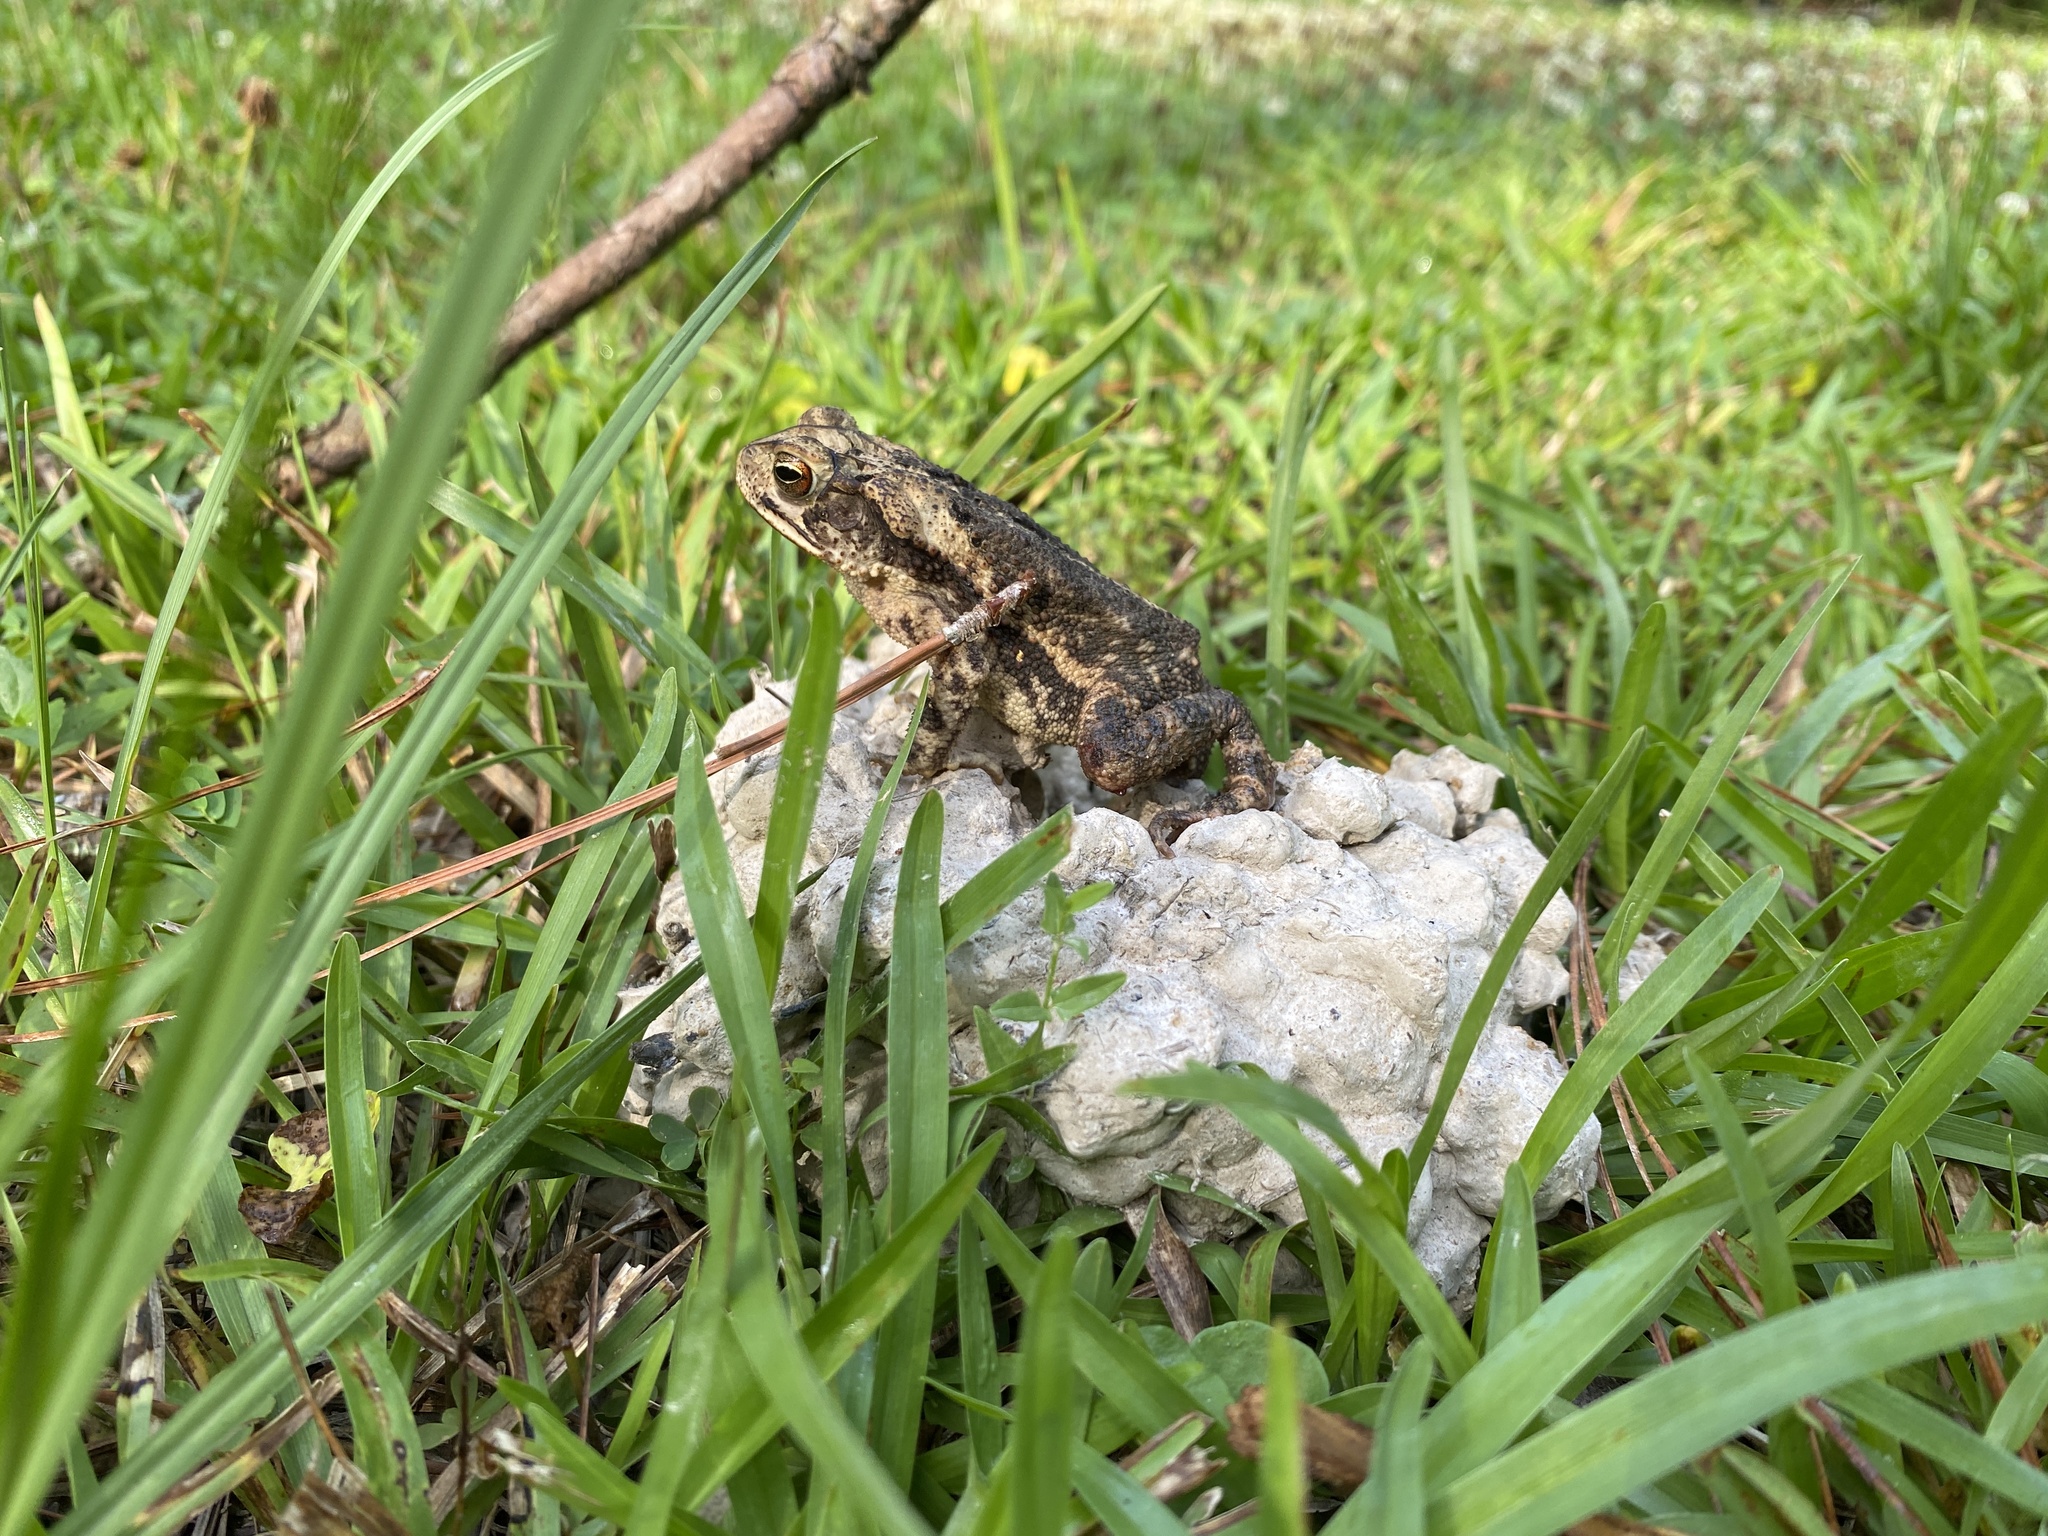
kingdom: Animalia
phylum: Chordata
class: Amphibia
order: Anura
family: Bufonidae
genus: Incilius
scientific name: Incilius nebulifer
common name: Gulf coast toad
